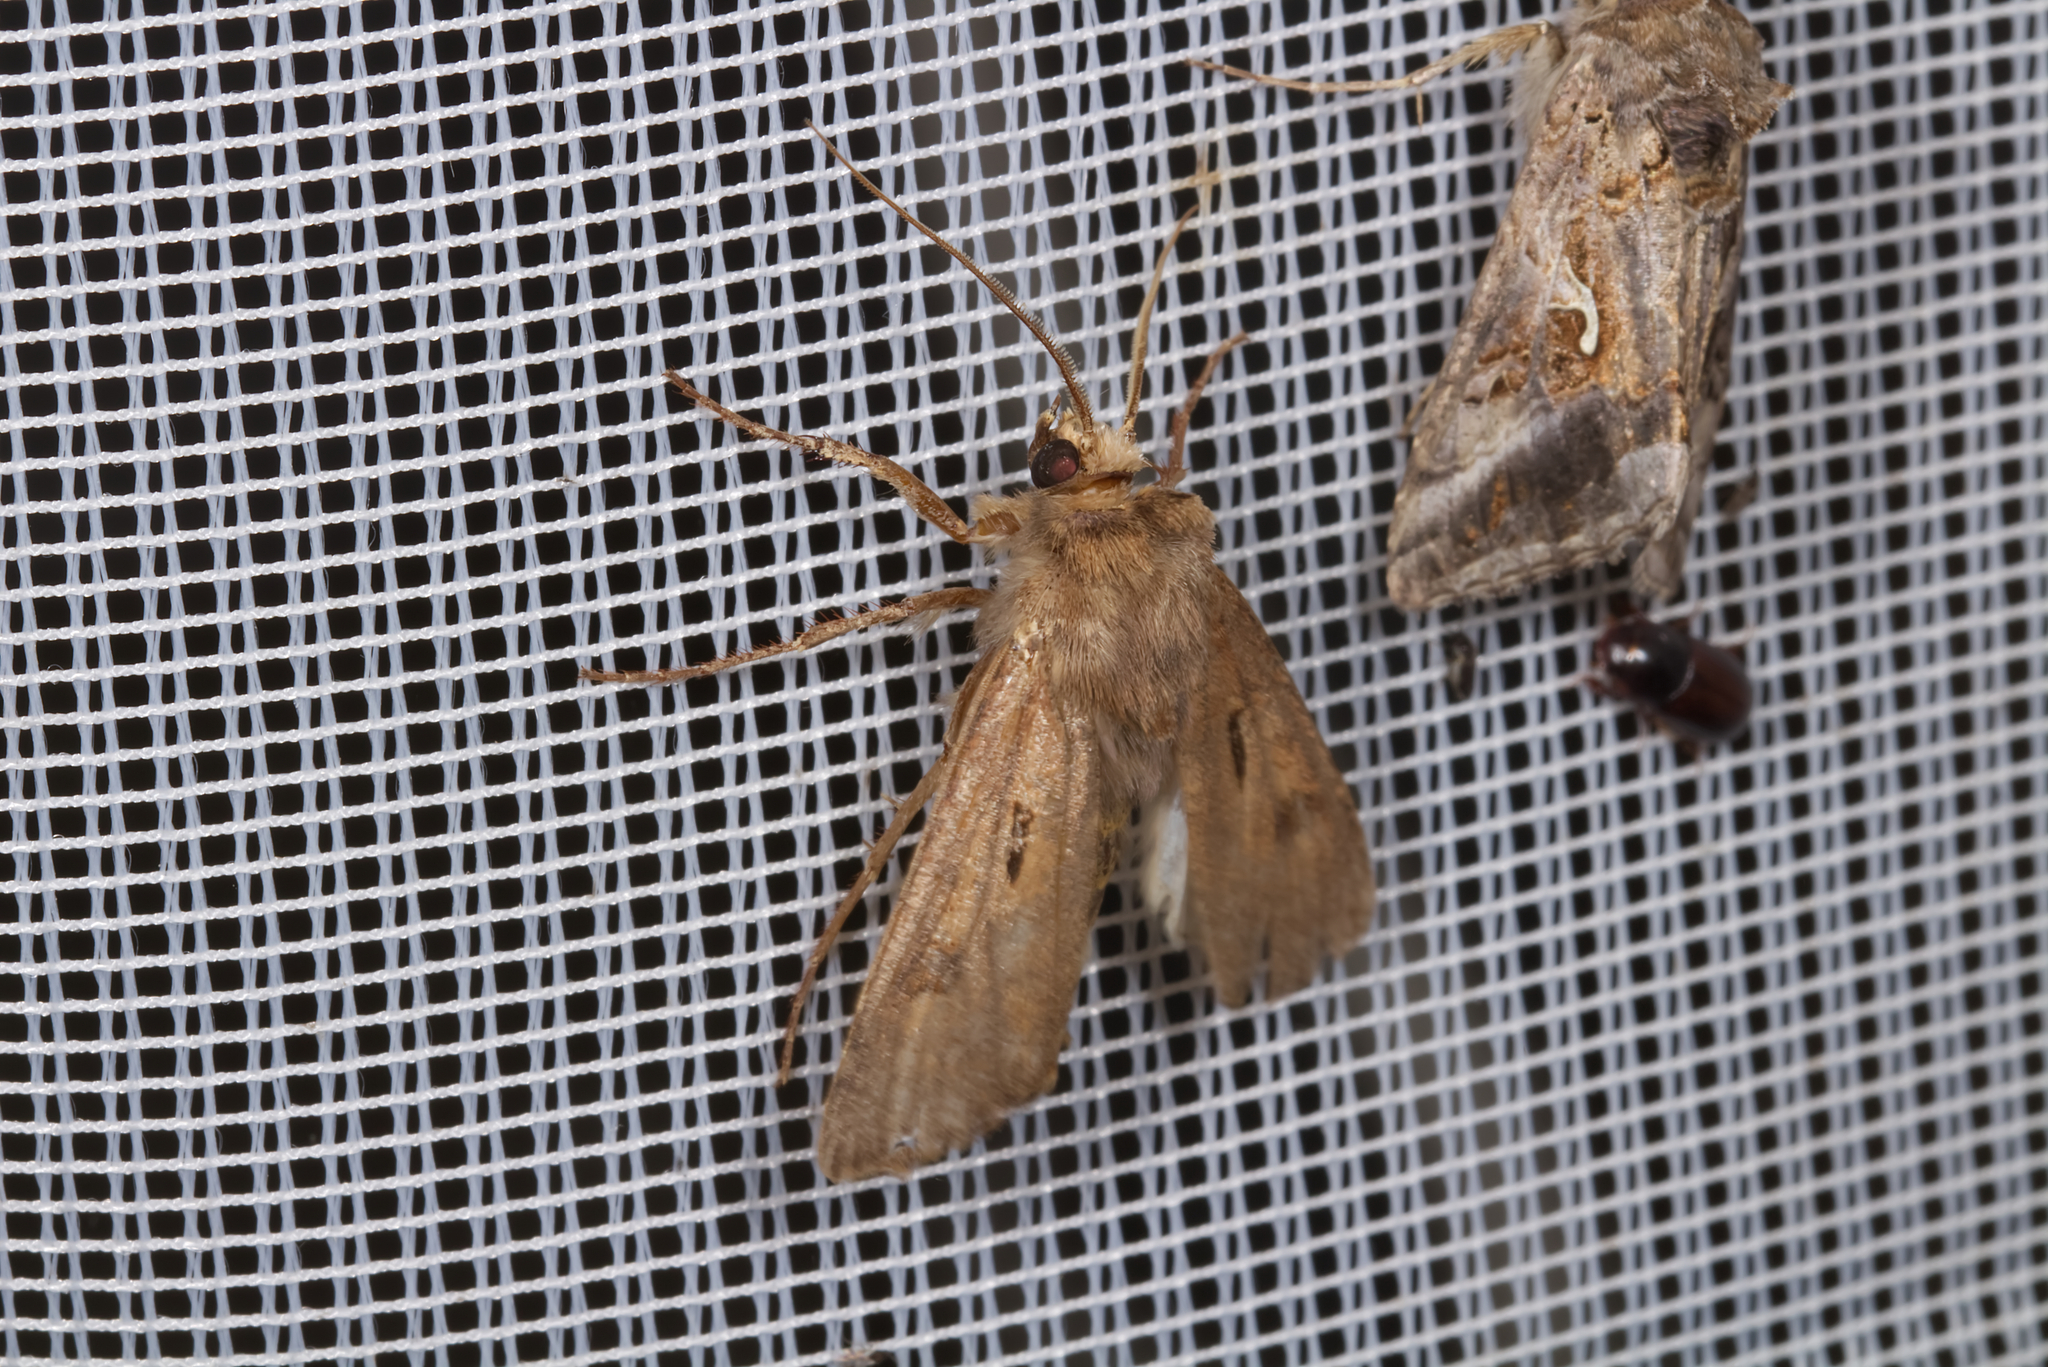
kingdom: Animalia
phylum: Arthropoda
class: Insecta
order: Lepidoptera
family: Noctuidae
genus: Agrotis
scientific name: Agrotis exclamationis
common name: Heart and dart
